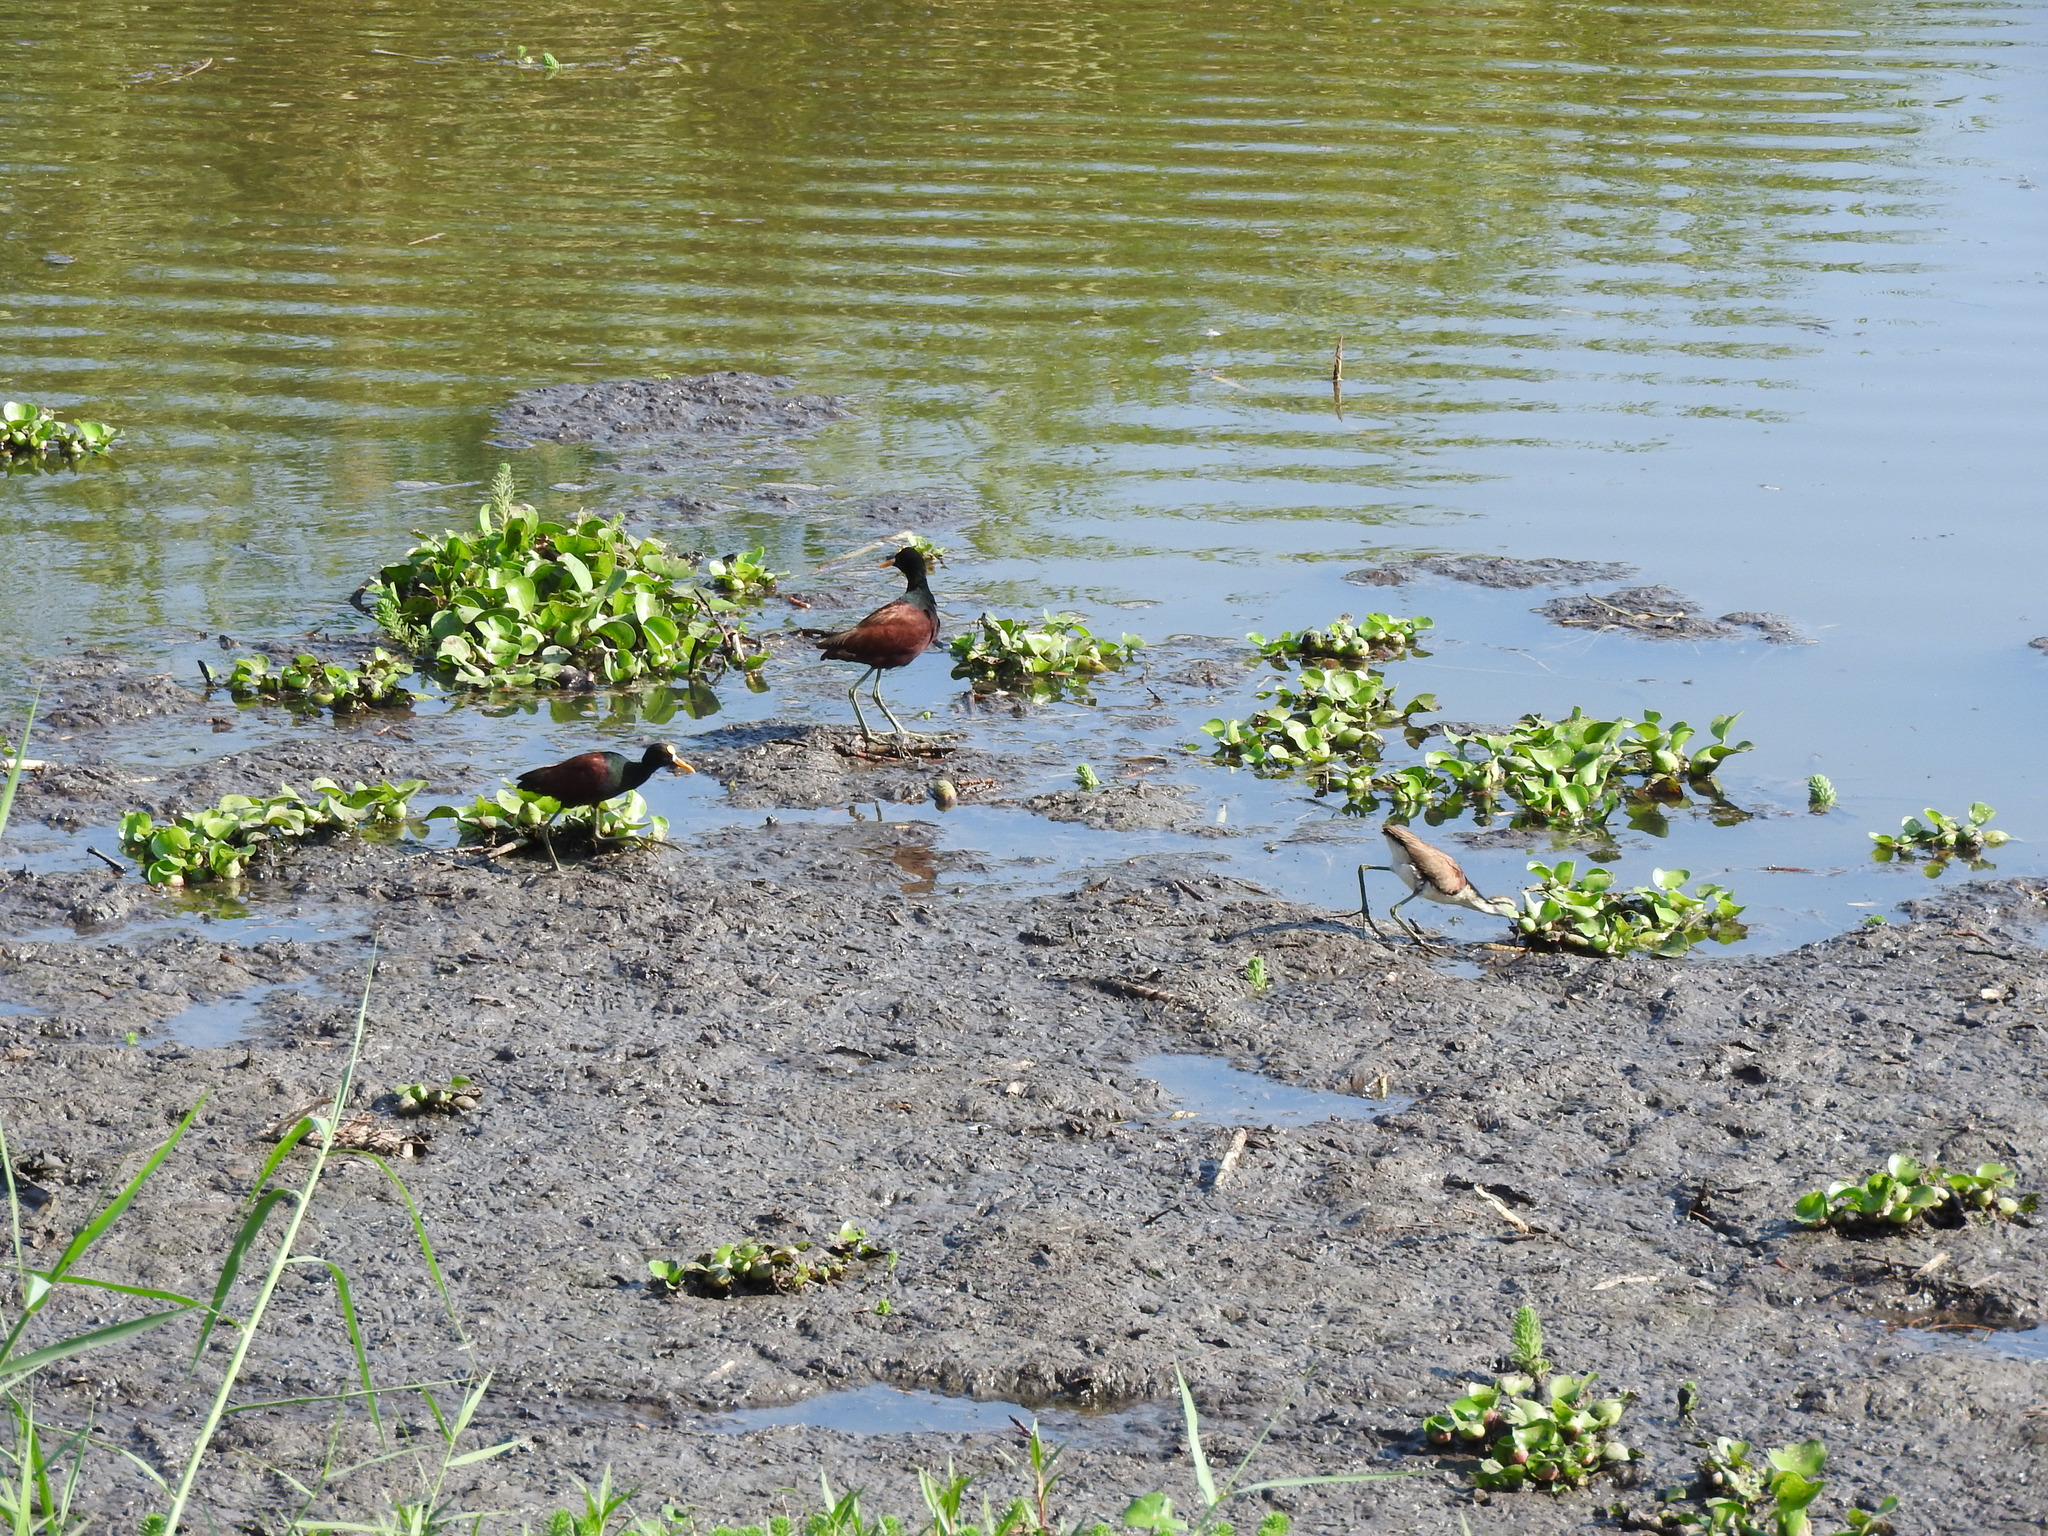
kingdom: Animalia
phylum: Chordata
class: Aves
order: Charadriiformes
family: Jacanidae
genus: Jacana
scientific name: Jacana spinosa
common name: Northern jacana
